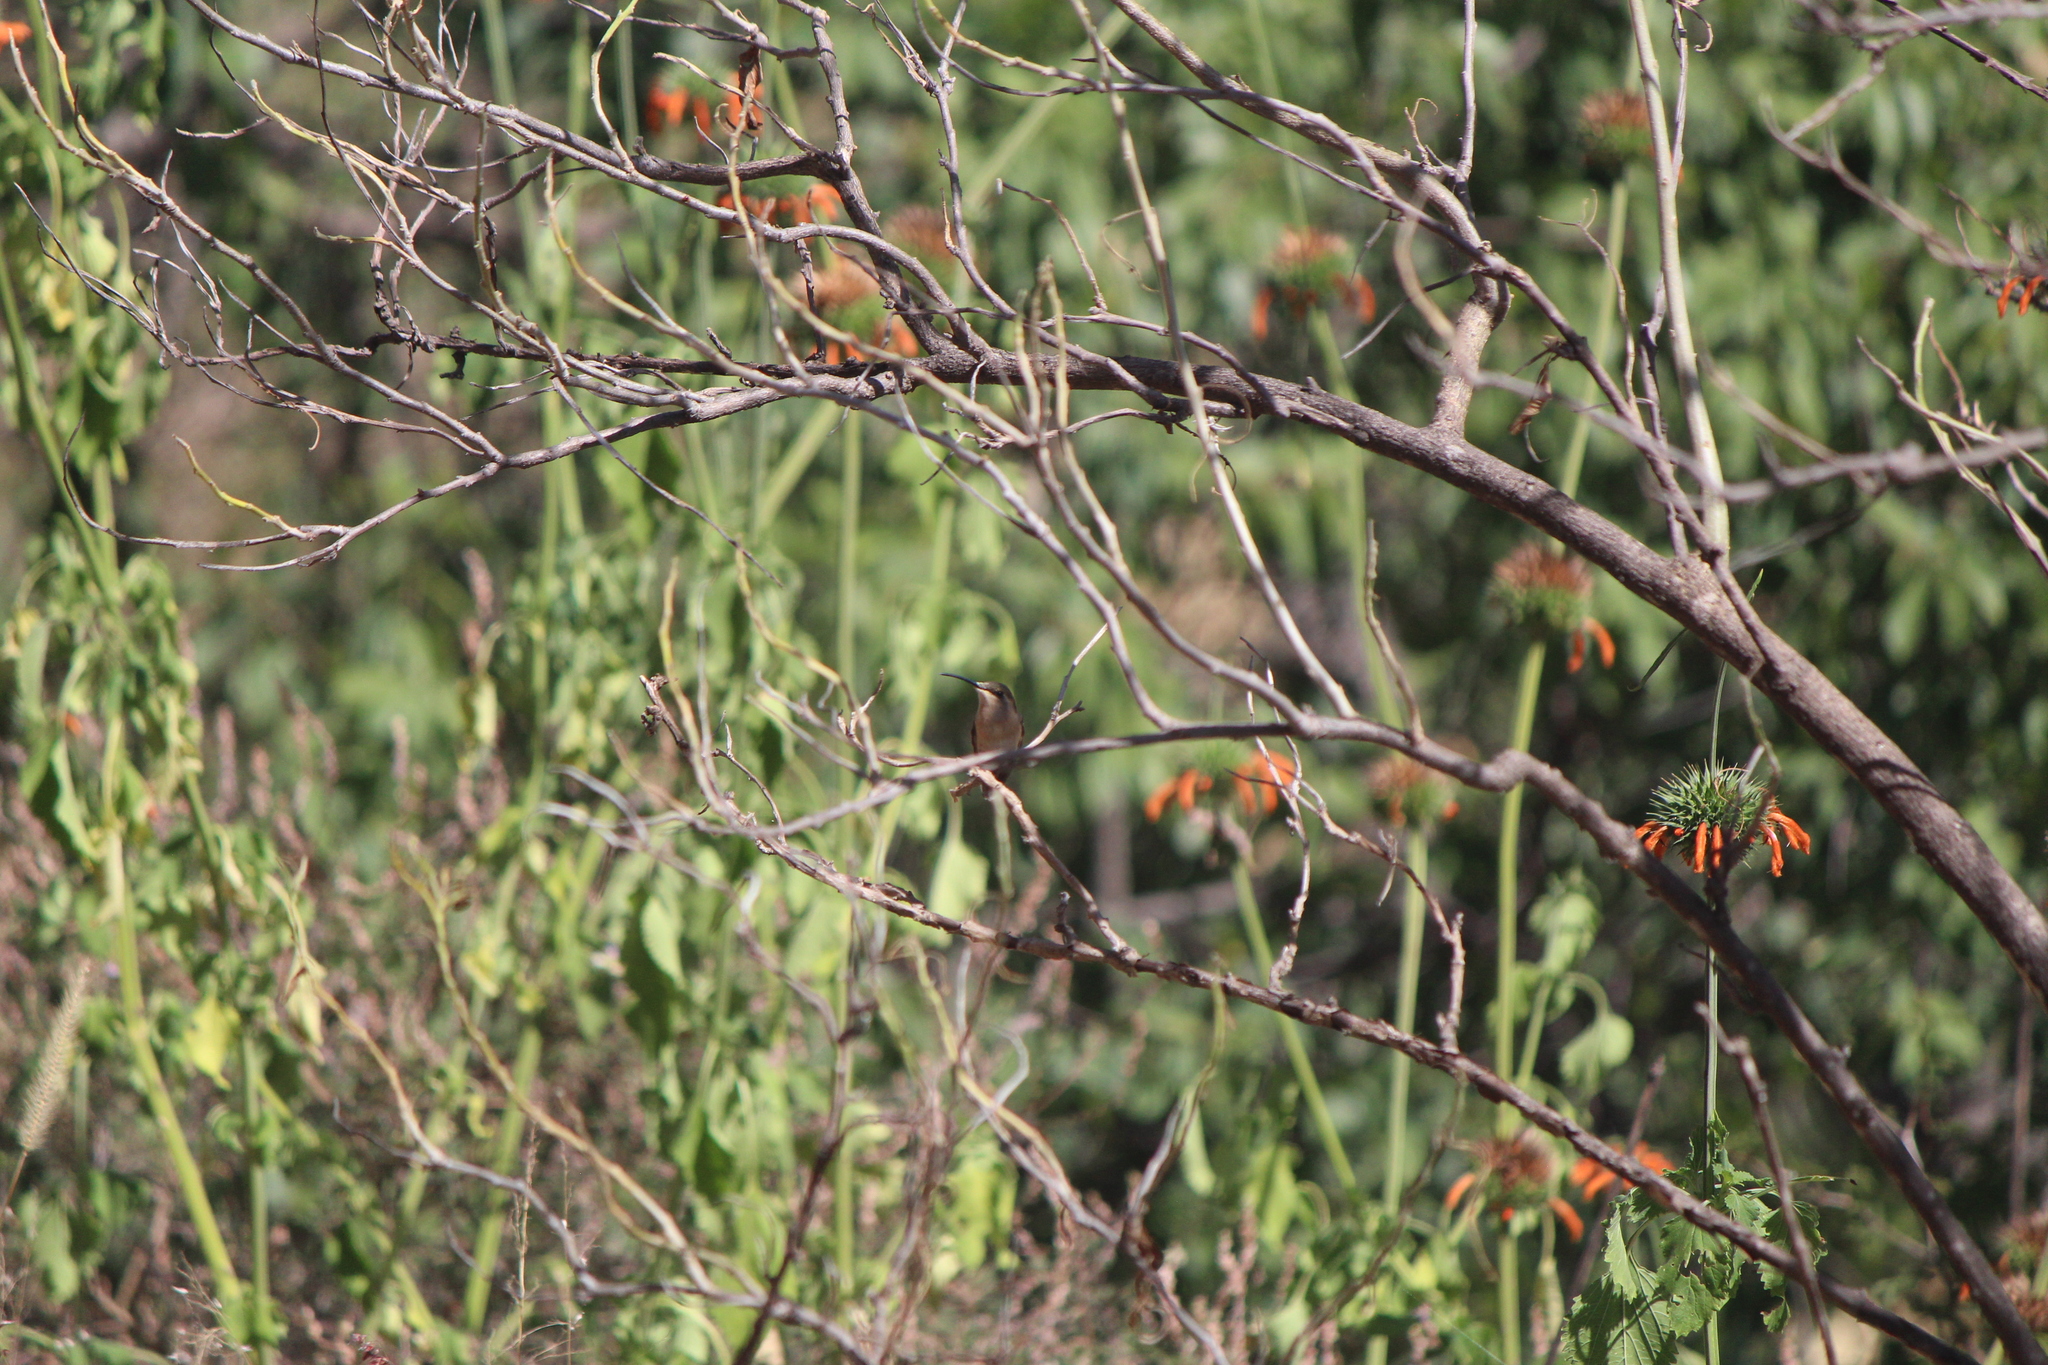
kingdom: Animalia
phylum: Chordata
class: Aves
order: Apodiformes
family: Trochilidae
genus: Calothorax
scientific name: Calothorax lucifer
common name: Lucifer sheartail
